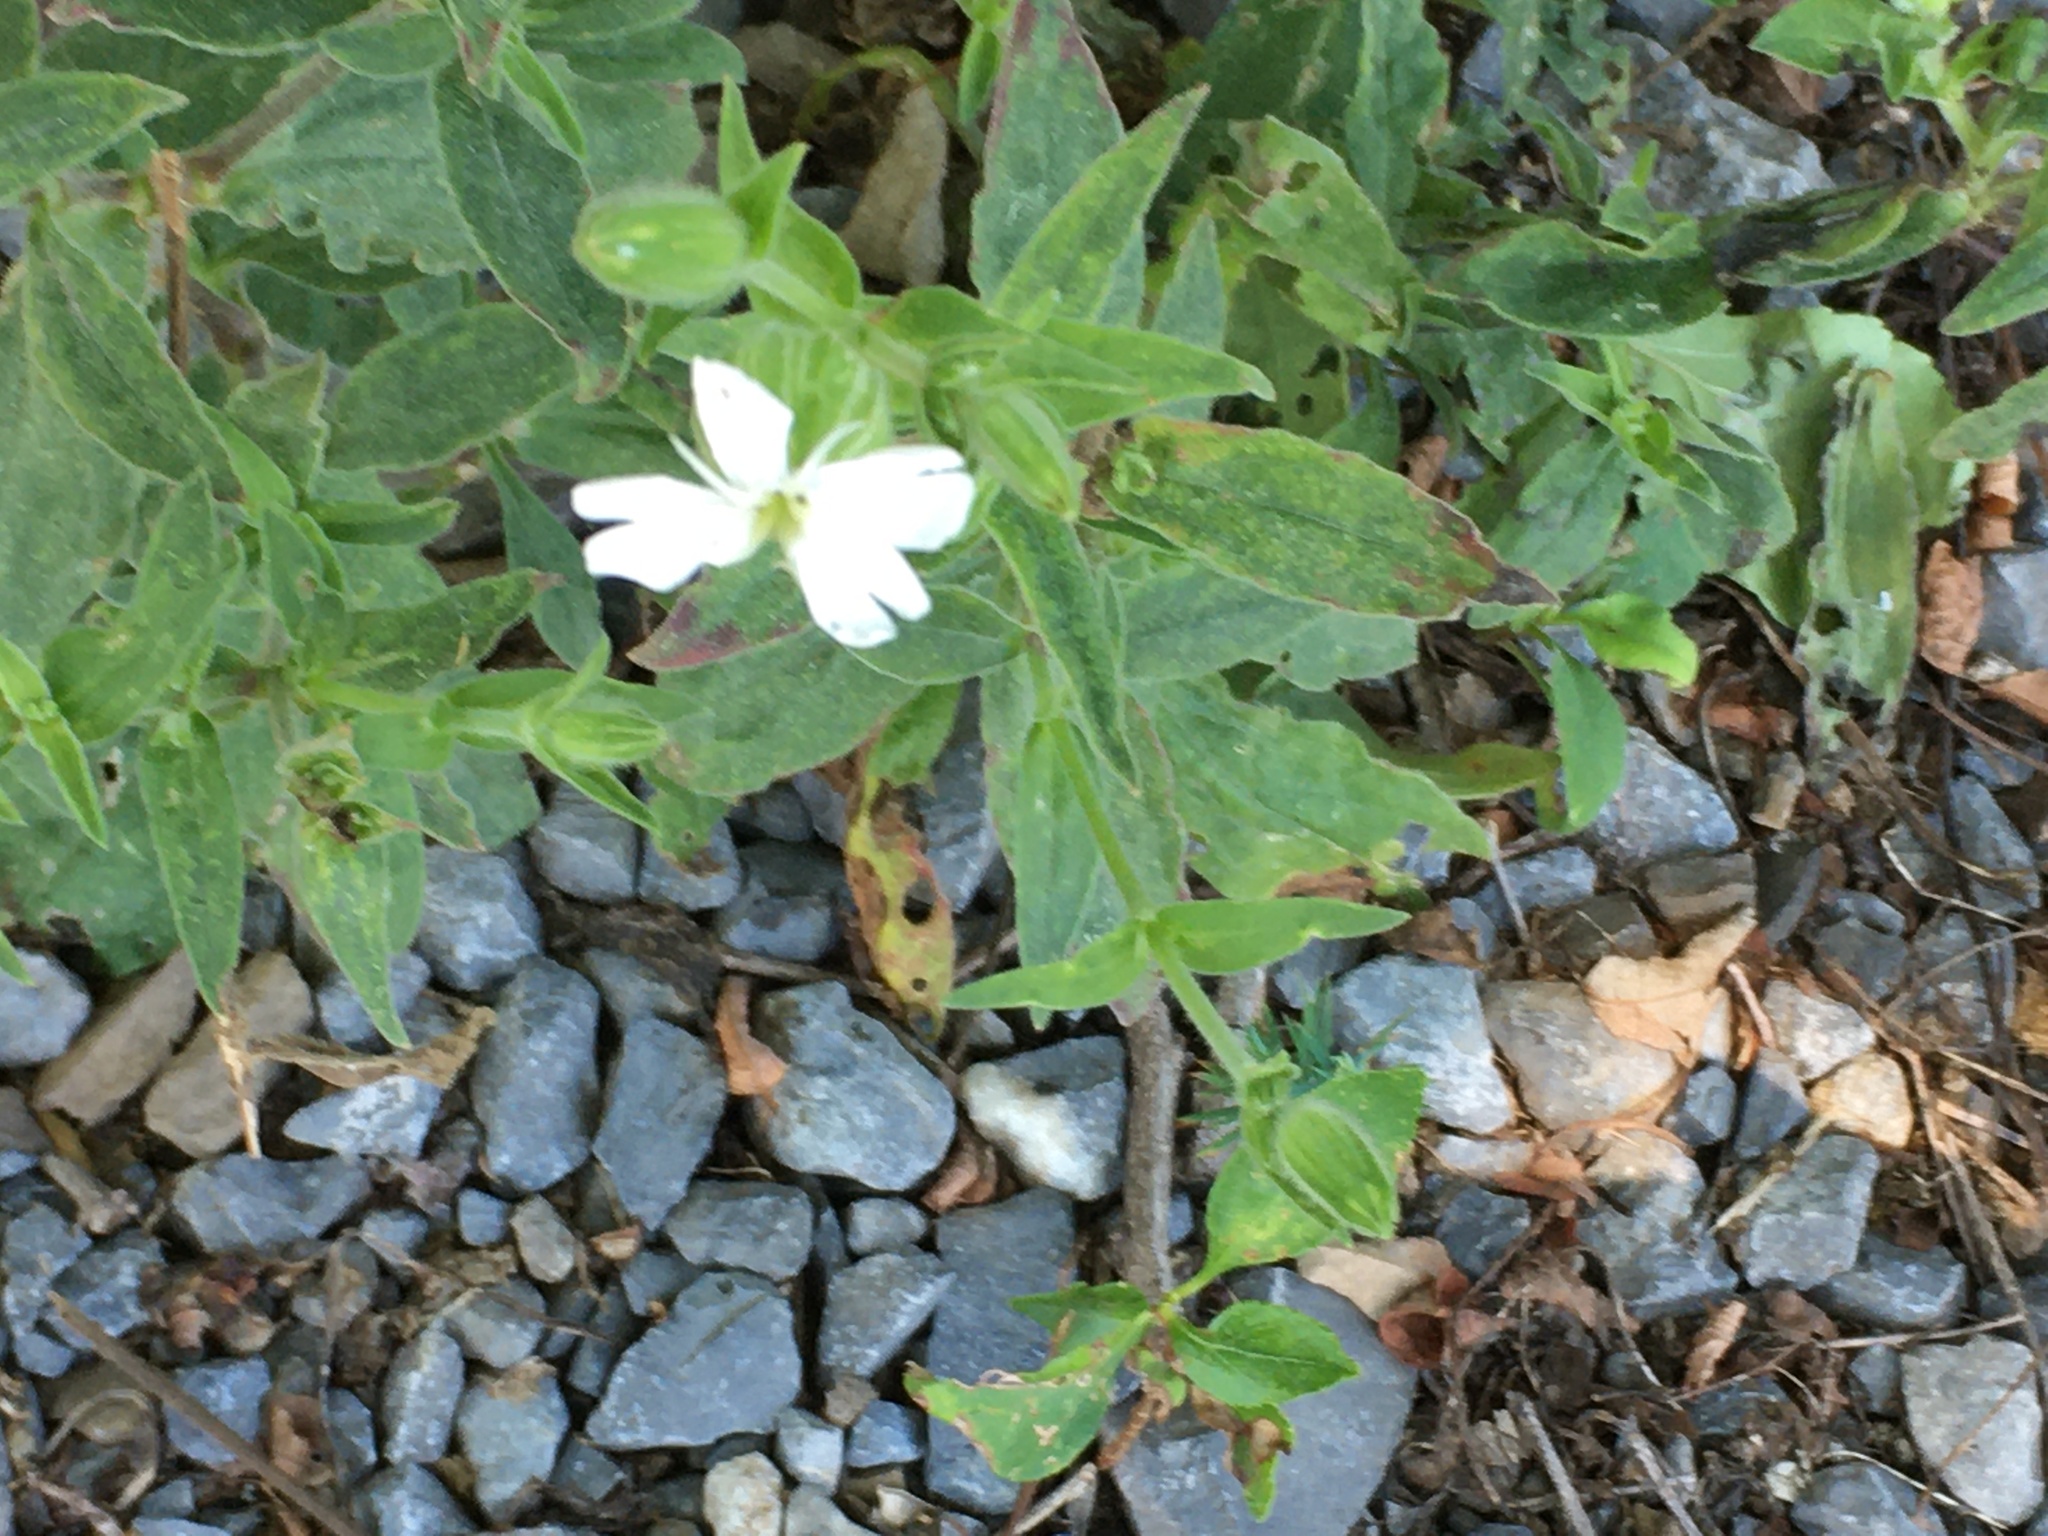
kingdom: Plantae
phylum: Tracheophyta
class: Magnoliopsida
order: Caryophyllales
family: Caryophyllaceae
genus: Silene
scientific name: Silene latifolia
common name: White campion
